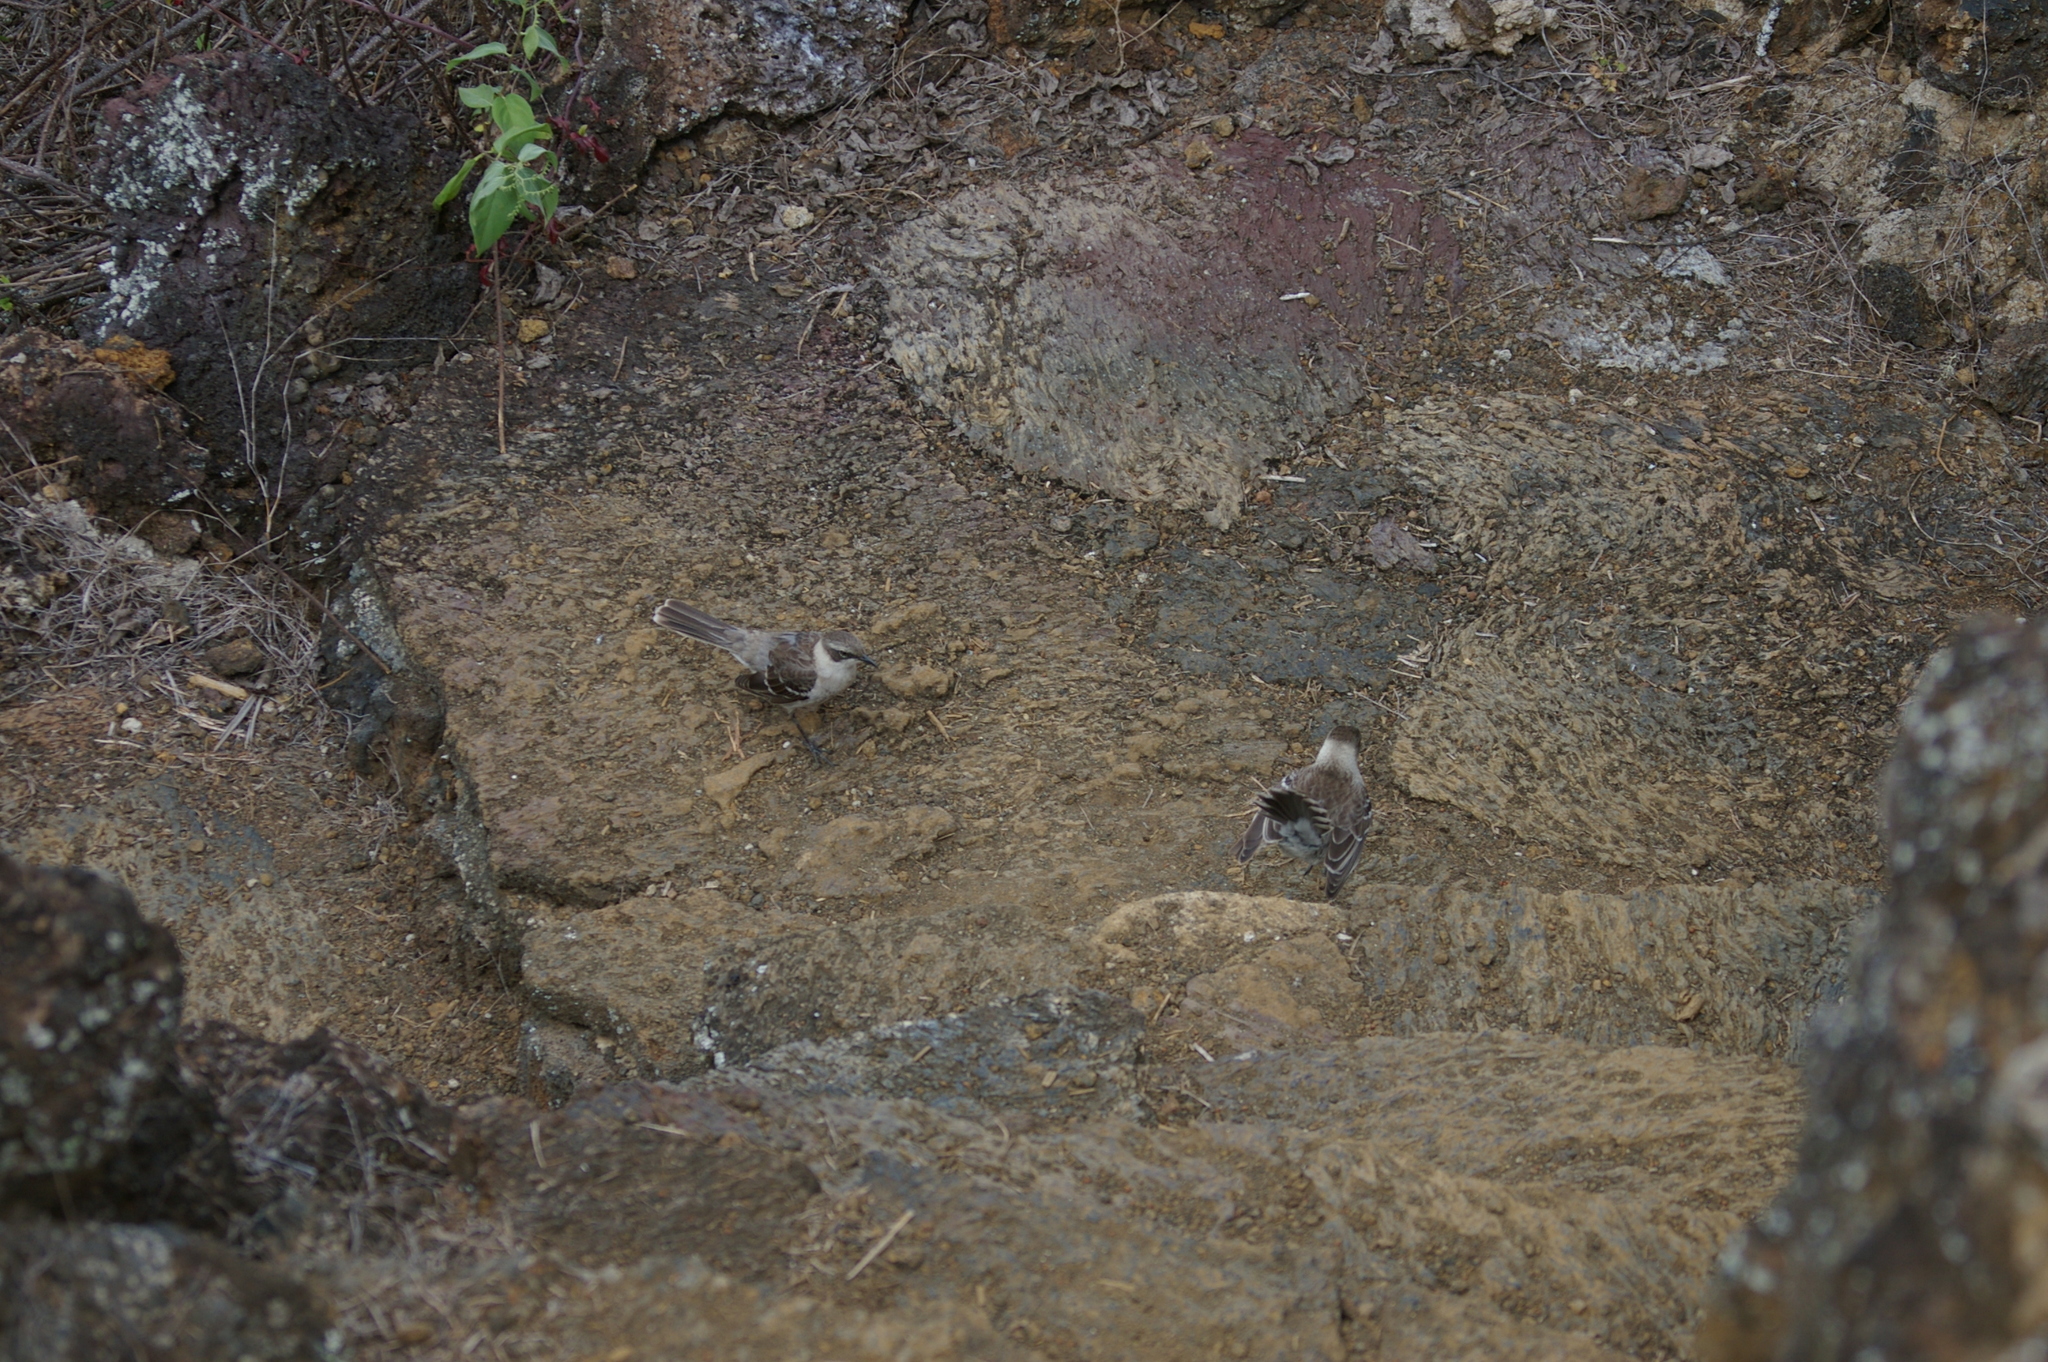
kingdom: Animalia
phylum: Chordata
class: Aves
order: Passeriformes
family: Mimidae
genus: Mimus
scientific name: Mimus parvulus
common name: Galapagos mockingbird
